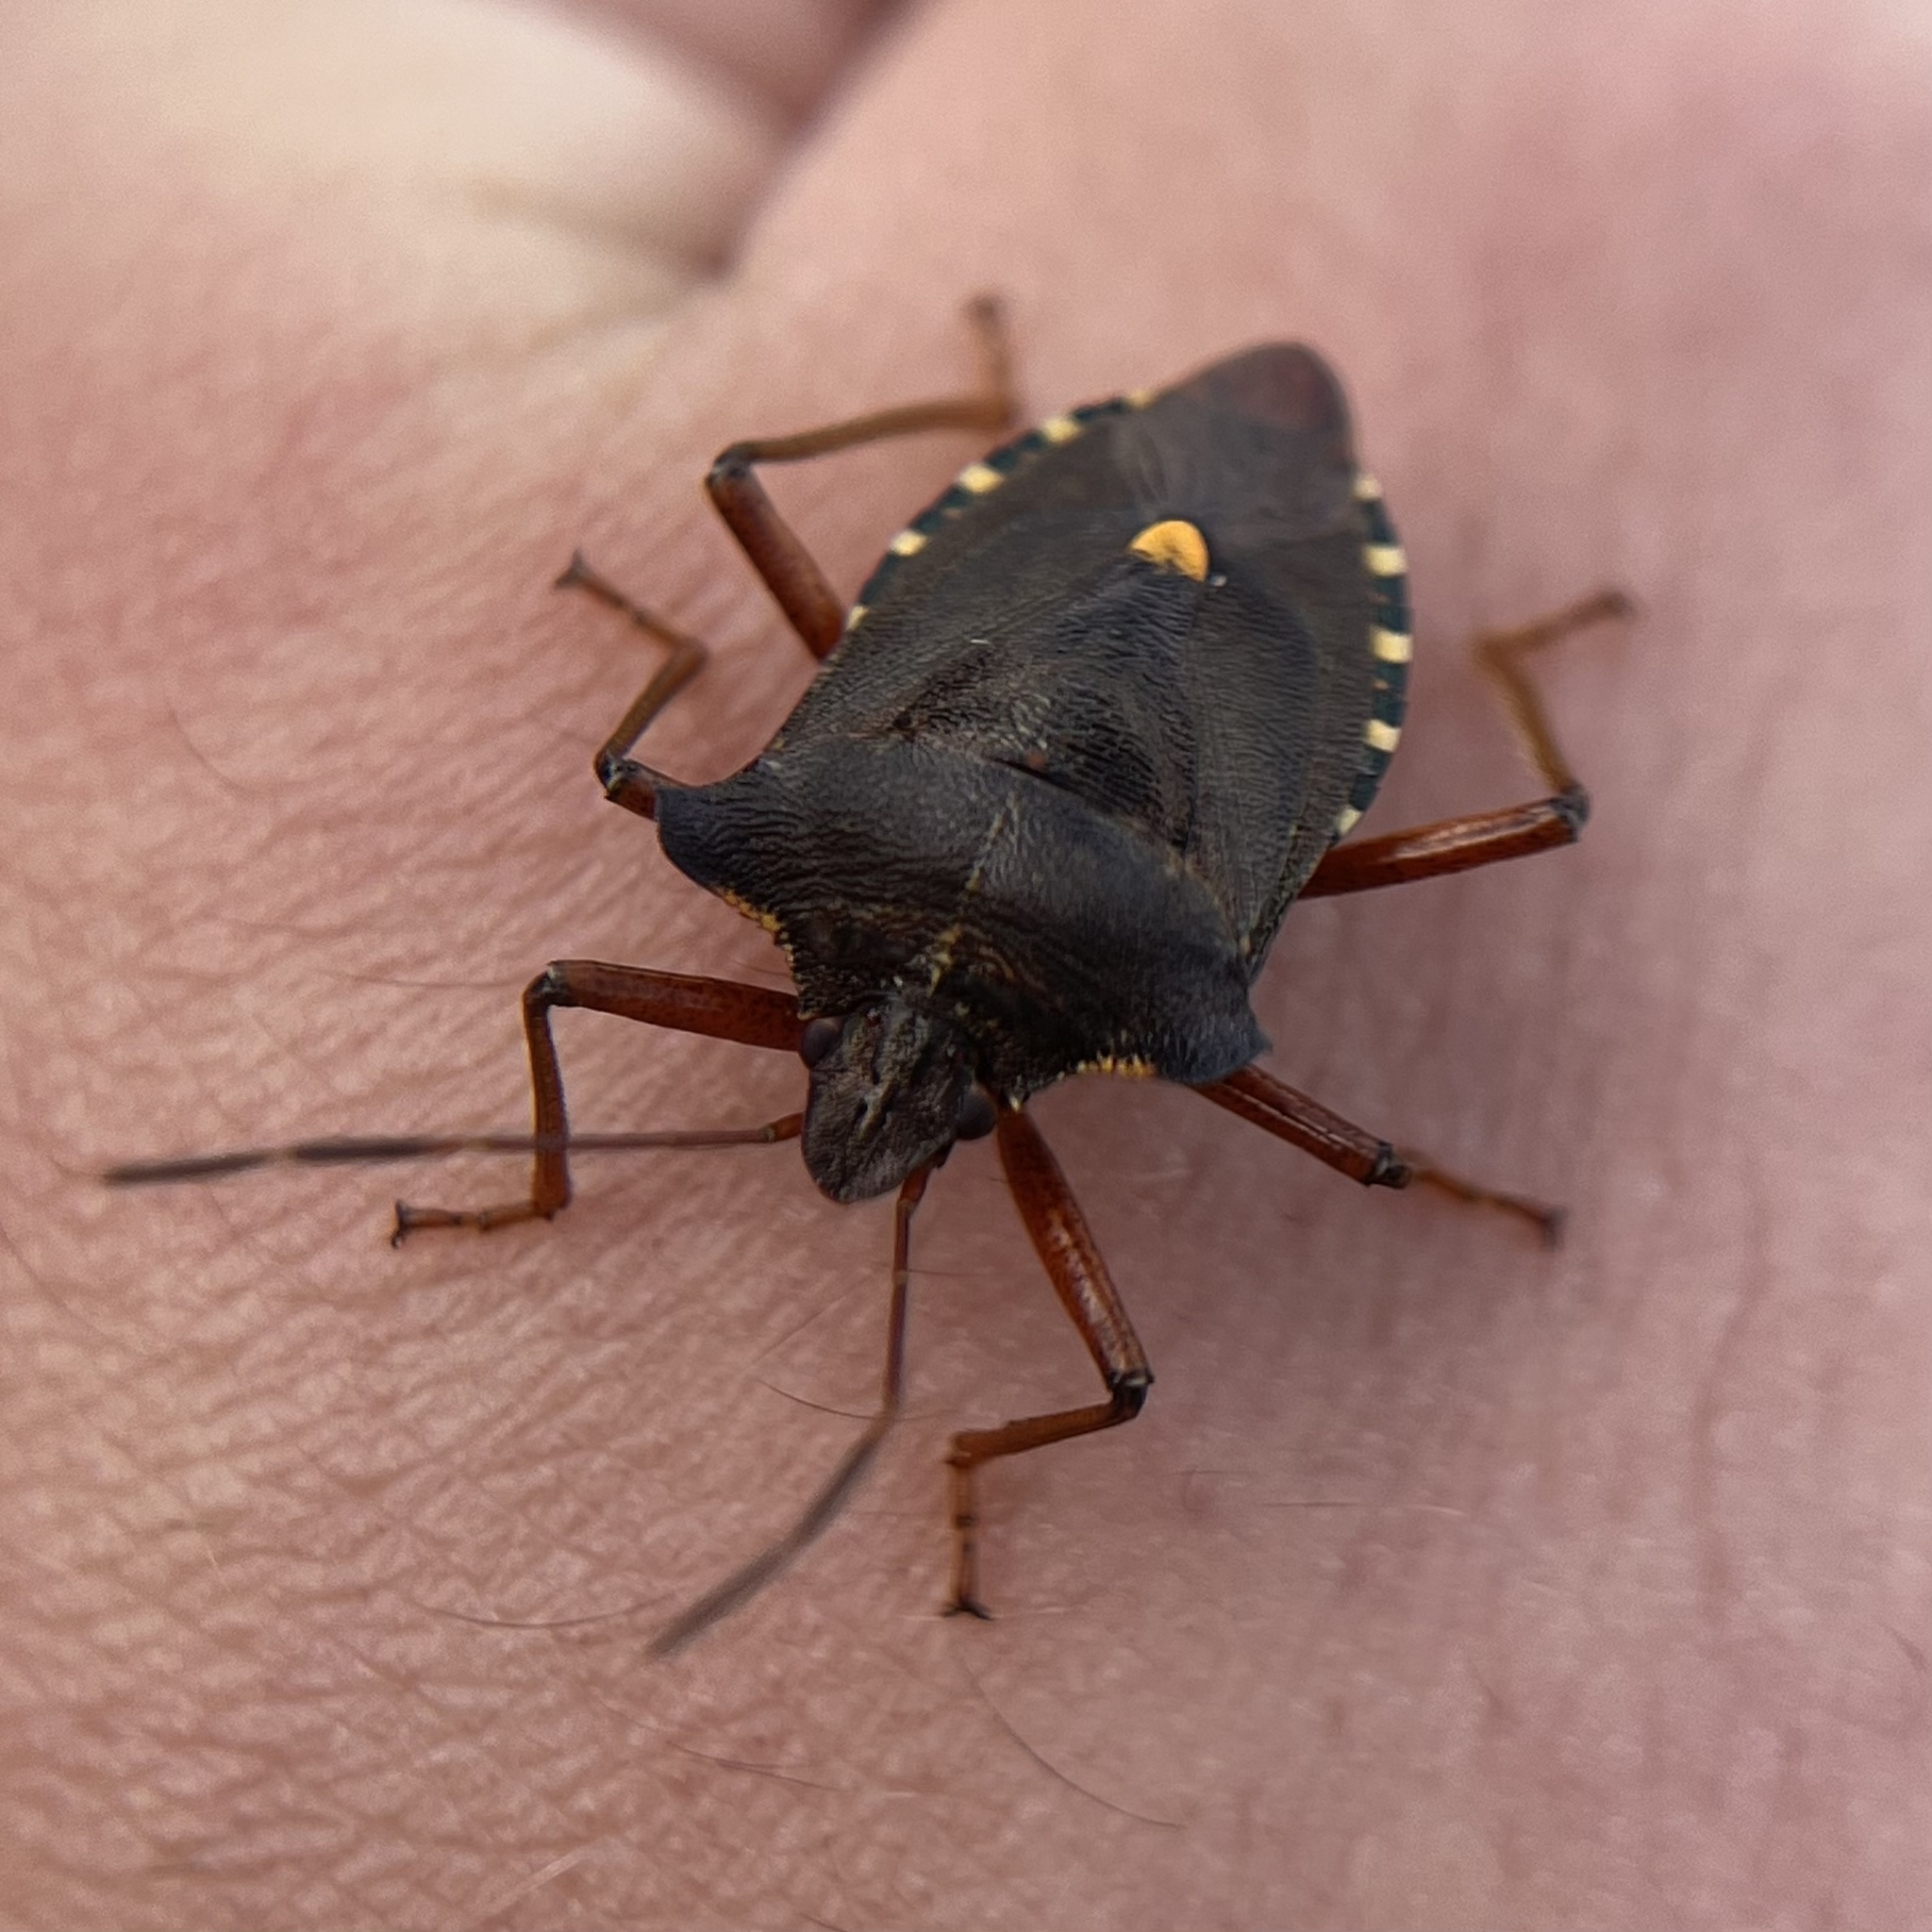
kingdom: Animalia
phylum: Arthropoda
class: Insecta
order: Hemiptera
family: Pentatomidae
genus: Pentatoma
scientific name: Pentatoma rufipes
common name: Forest bug
